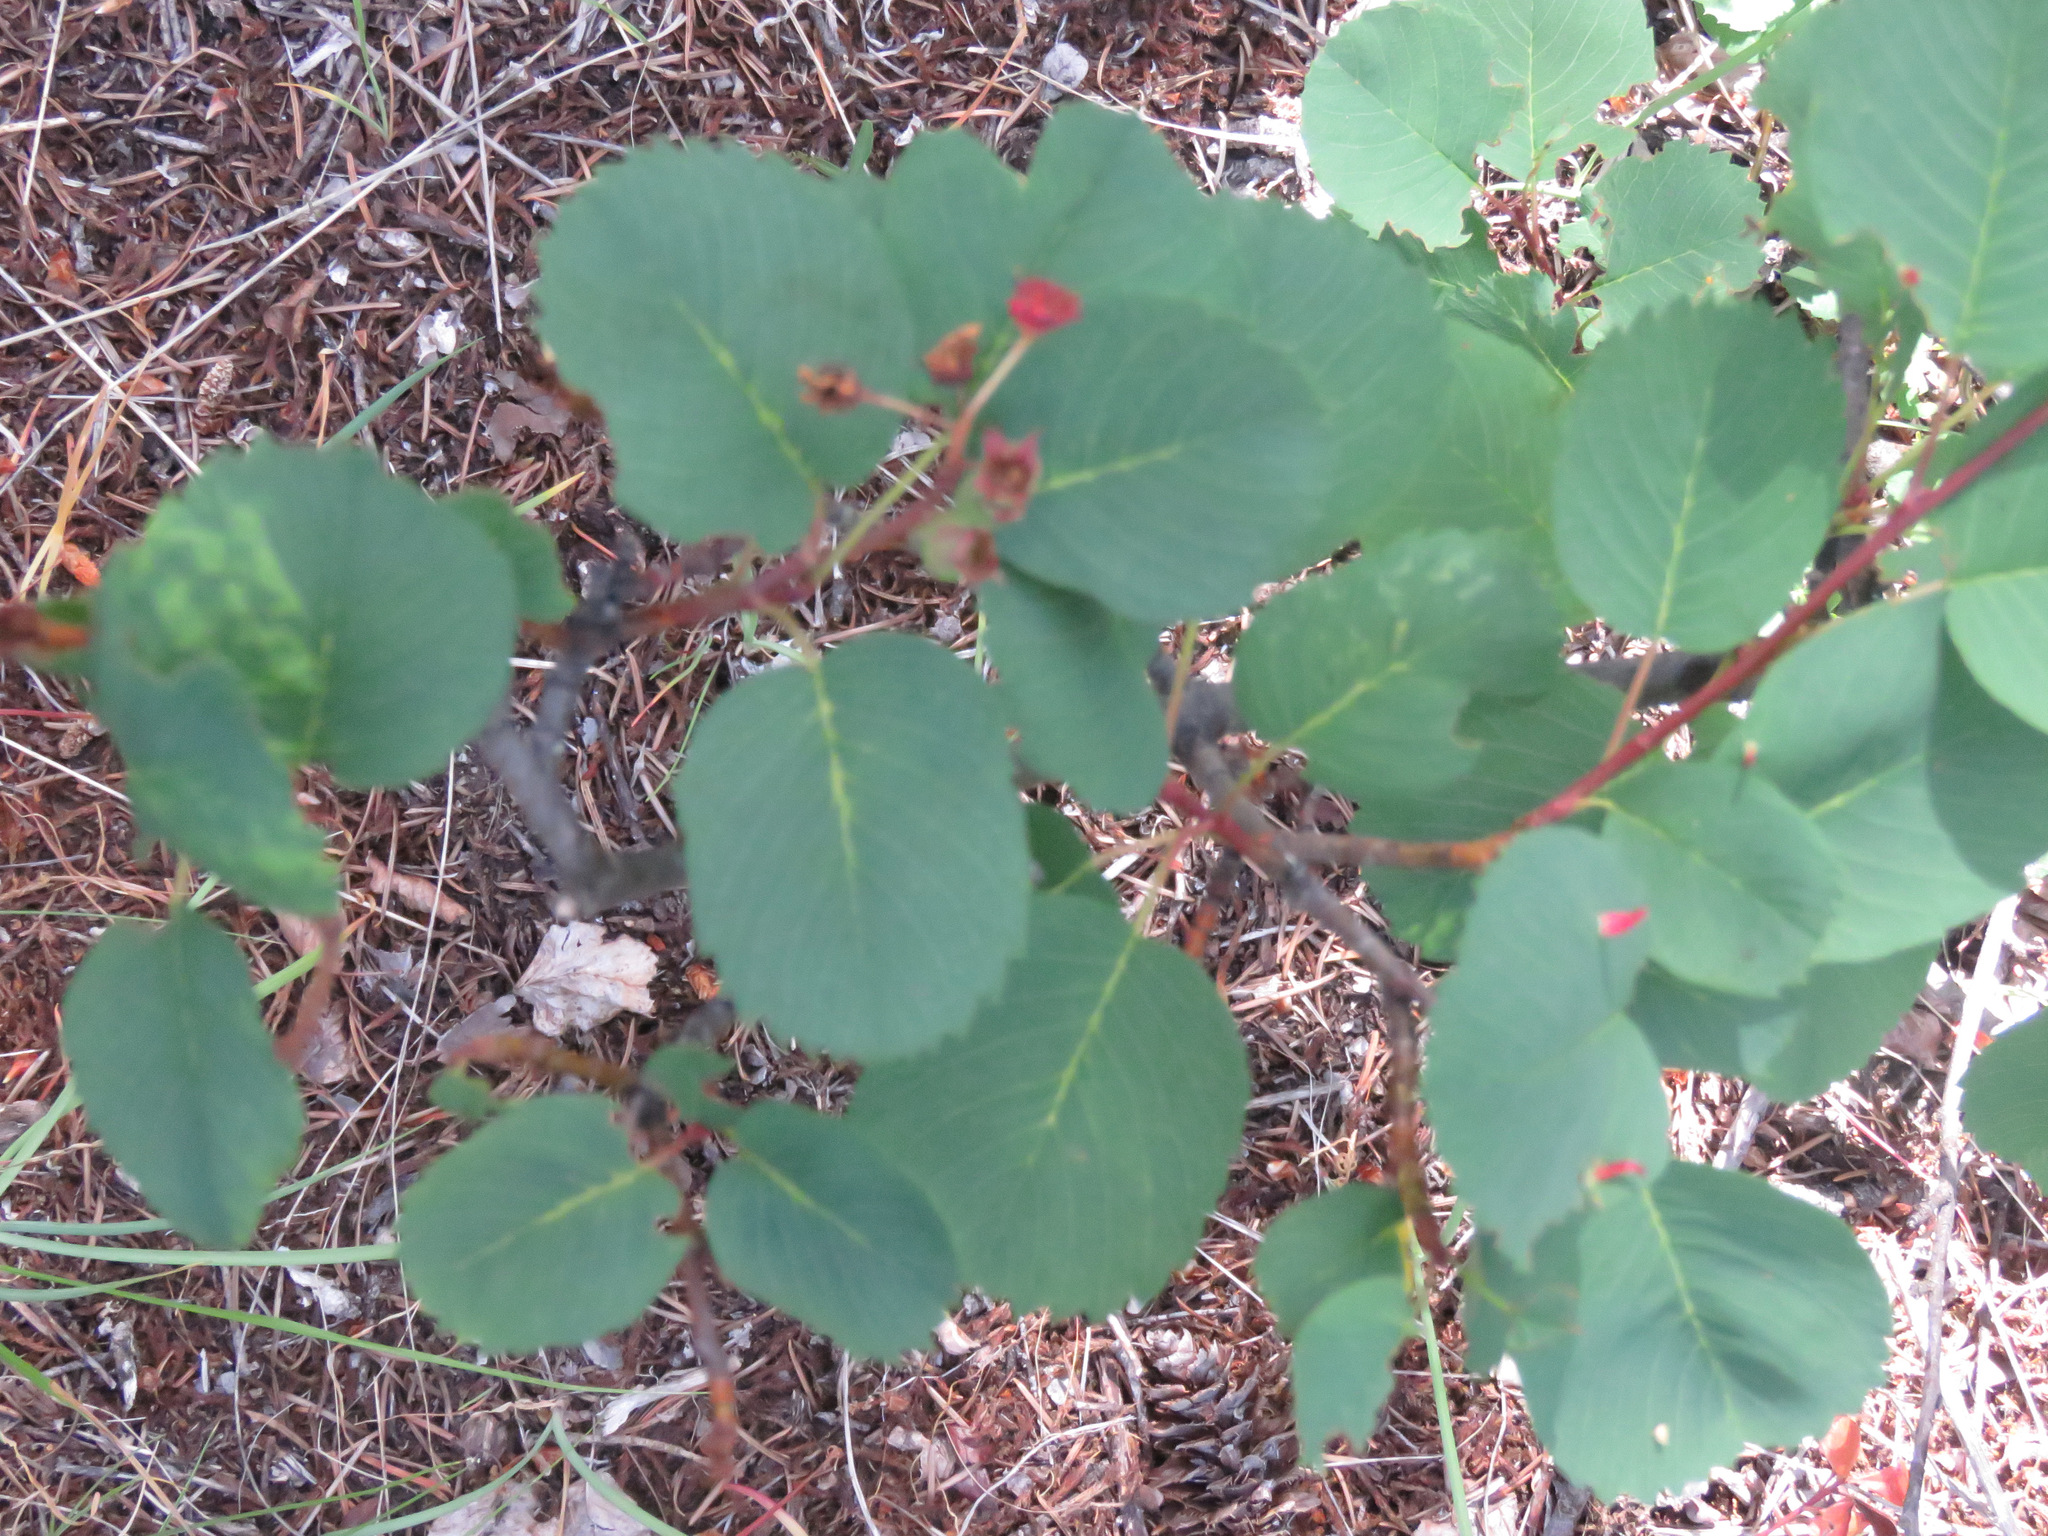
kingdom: Plantae
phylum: Tracheophyta
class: Magnoliopsida
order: Rosales
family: Rosaceae
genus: Amelanchier
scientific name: Amelanchier alnifolia
